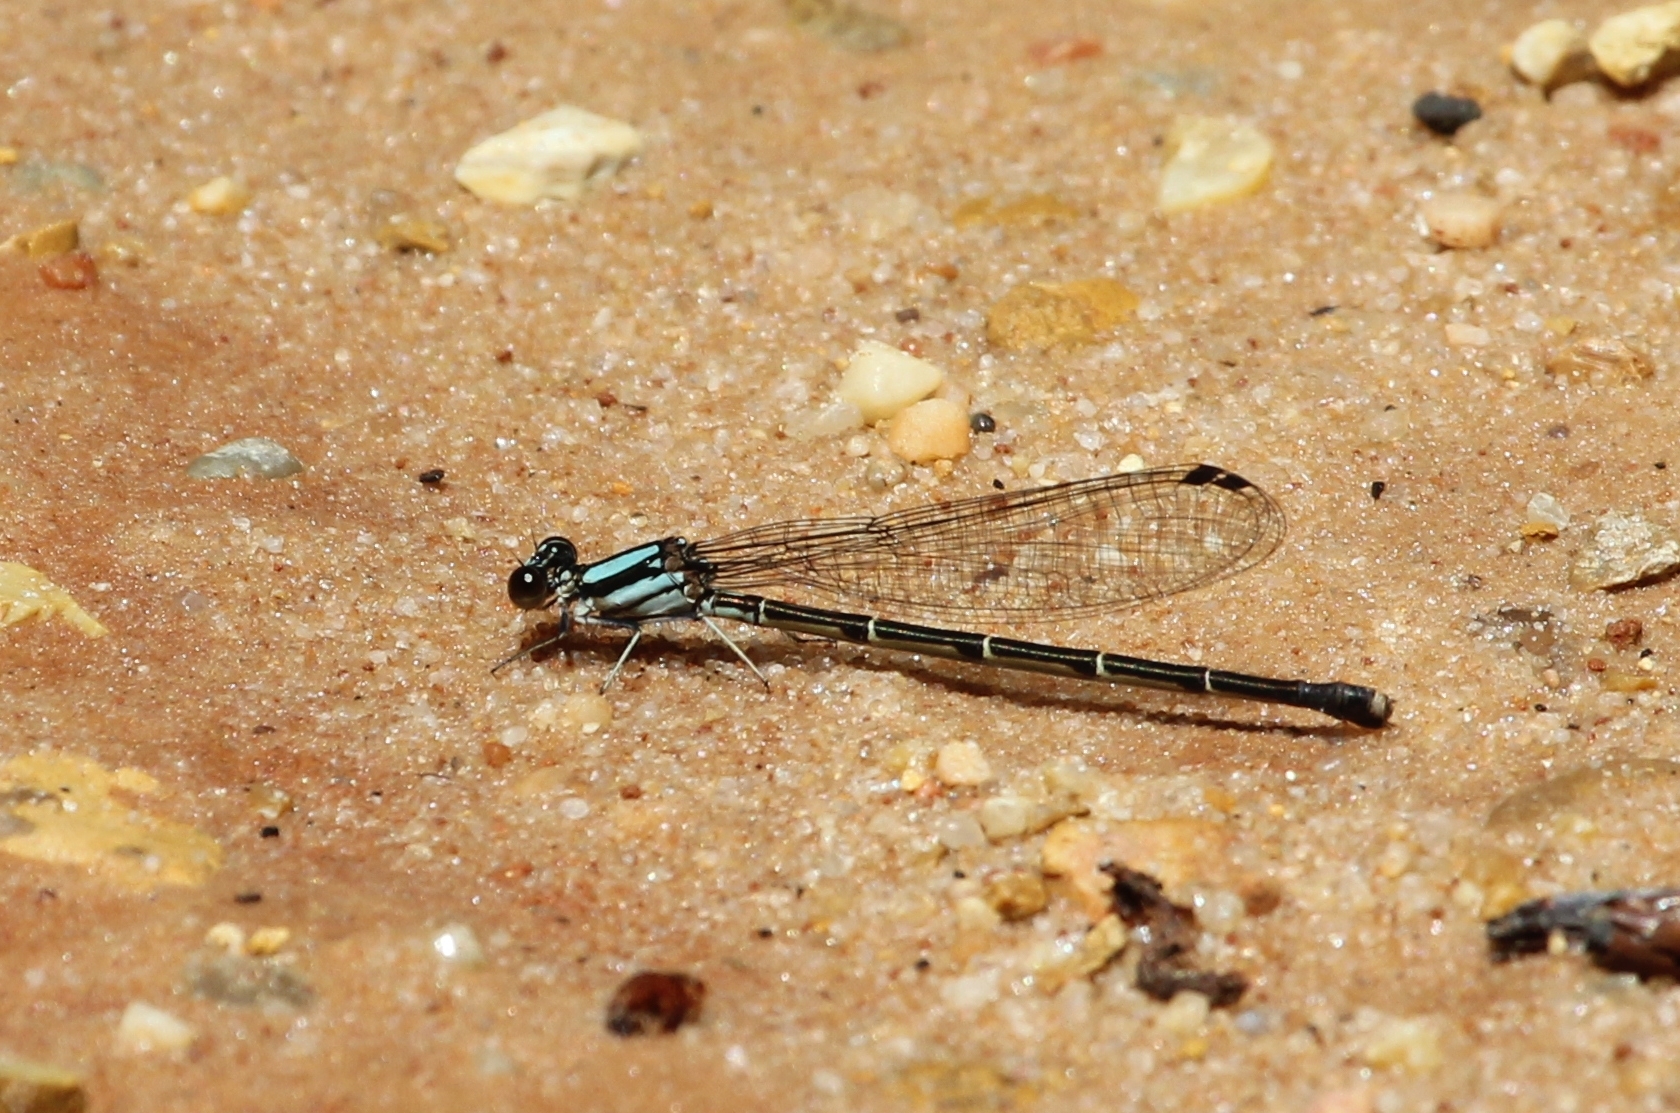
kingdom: Animalia
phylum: Arthropoda
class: Insecta
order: Odonata
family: Coenagrionidae
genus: Argia
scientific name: Argia tibialis
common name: Blue-tipped dancer
